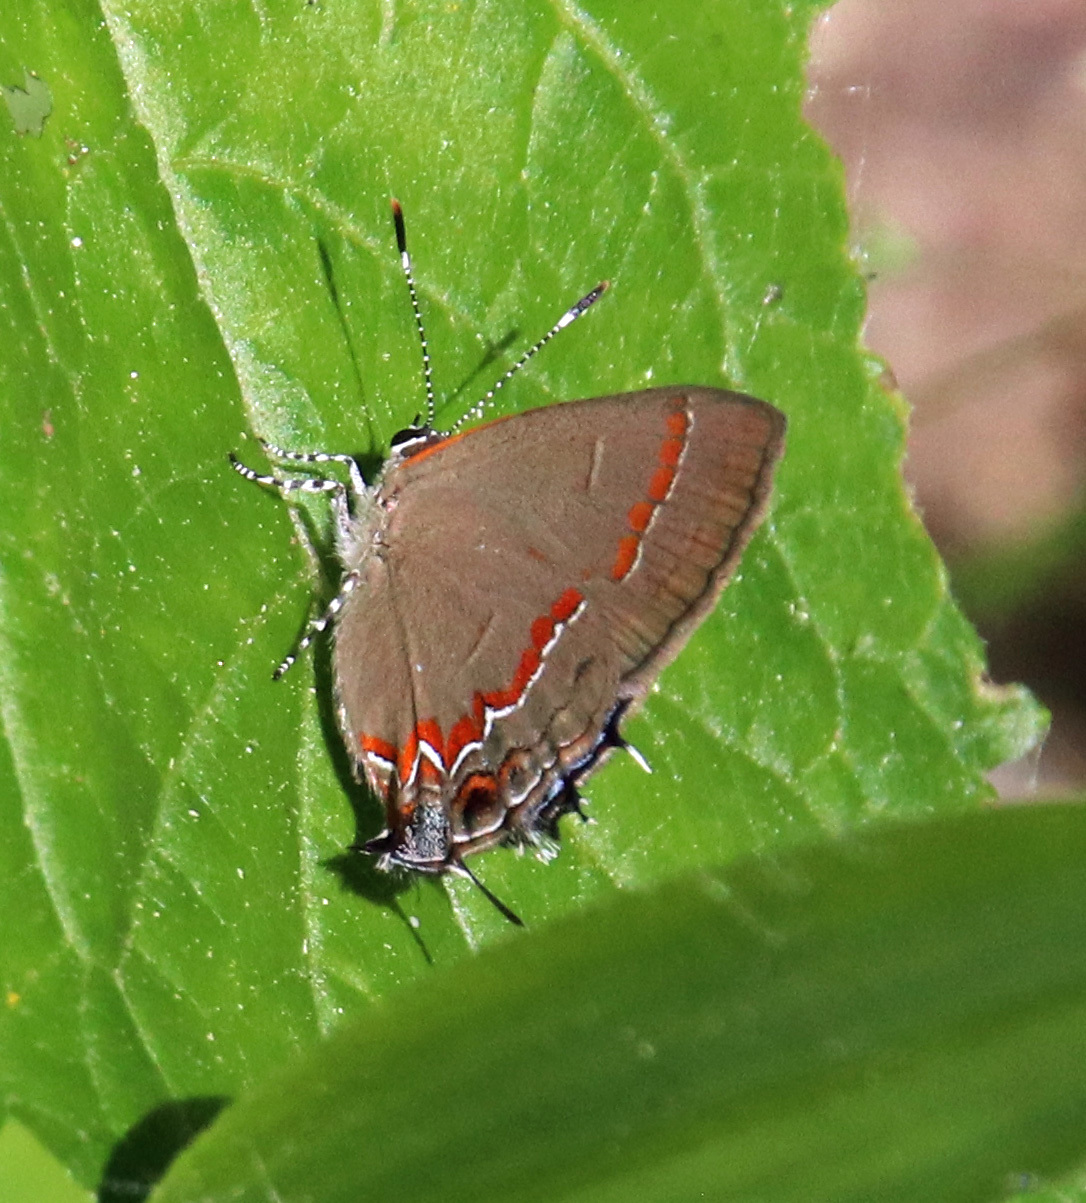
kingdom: Animalia
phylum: Arthropoda
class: Insecta
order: Lepidoptera
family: Lycaenidae
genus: Calycopis
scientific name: Calycopis cecrops
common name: Red-banded hairstreak
